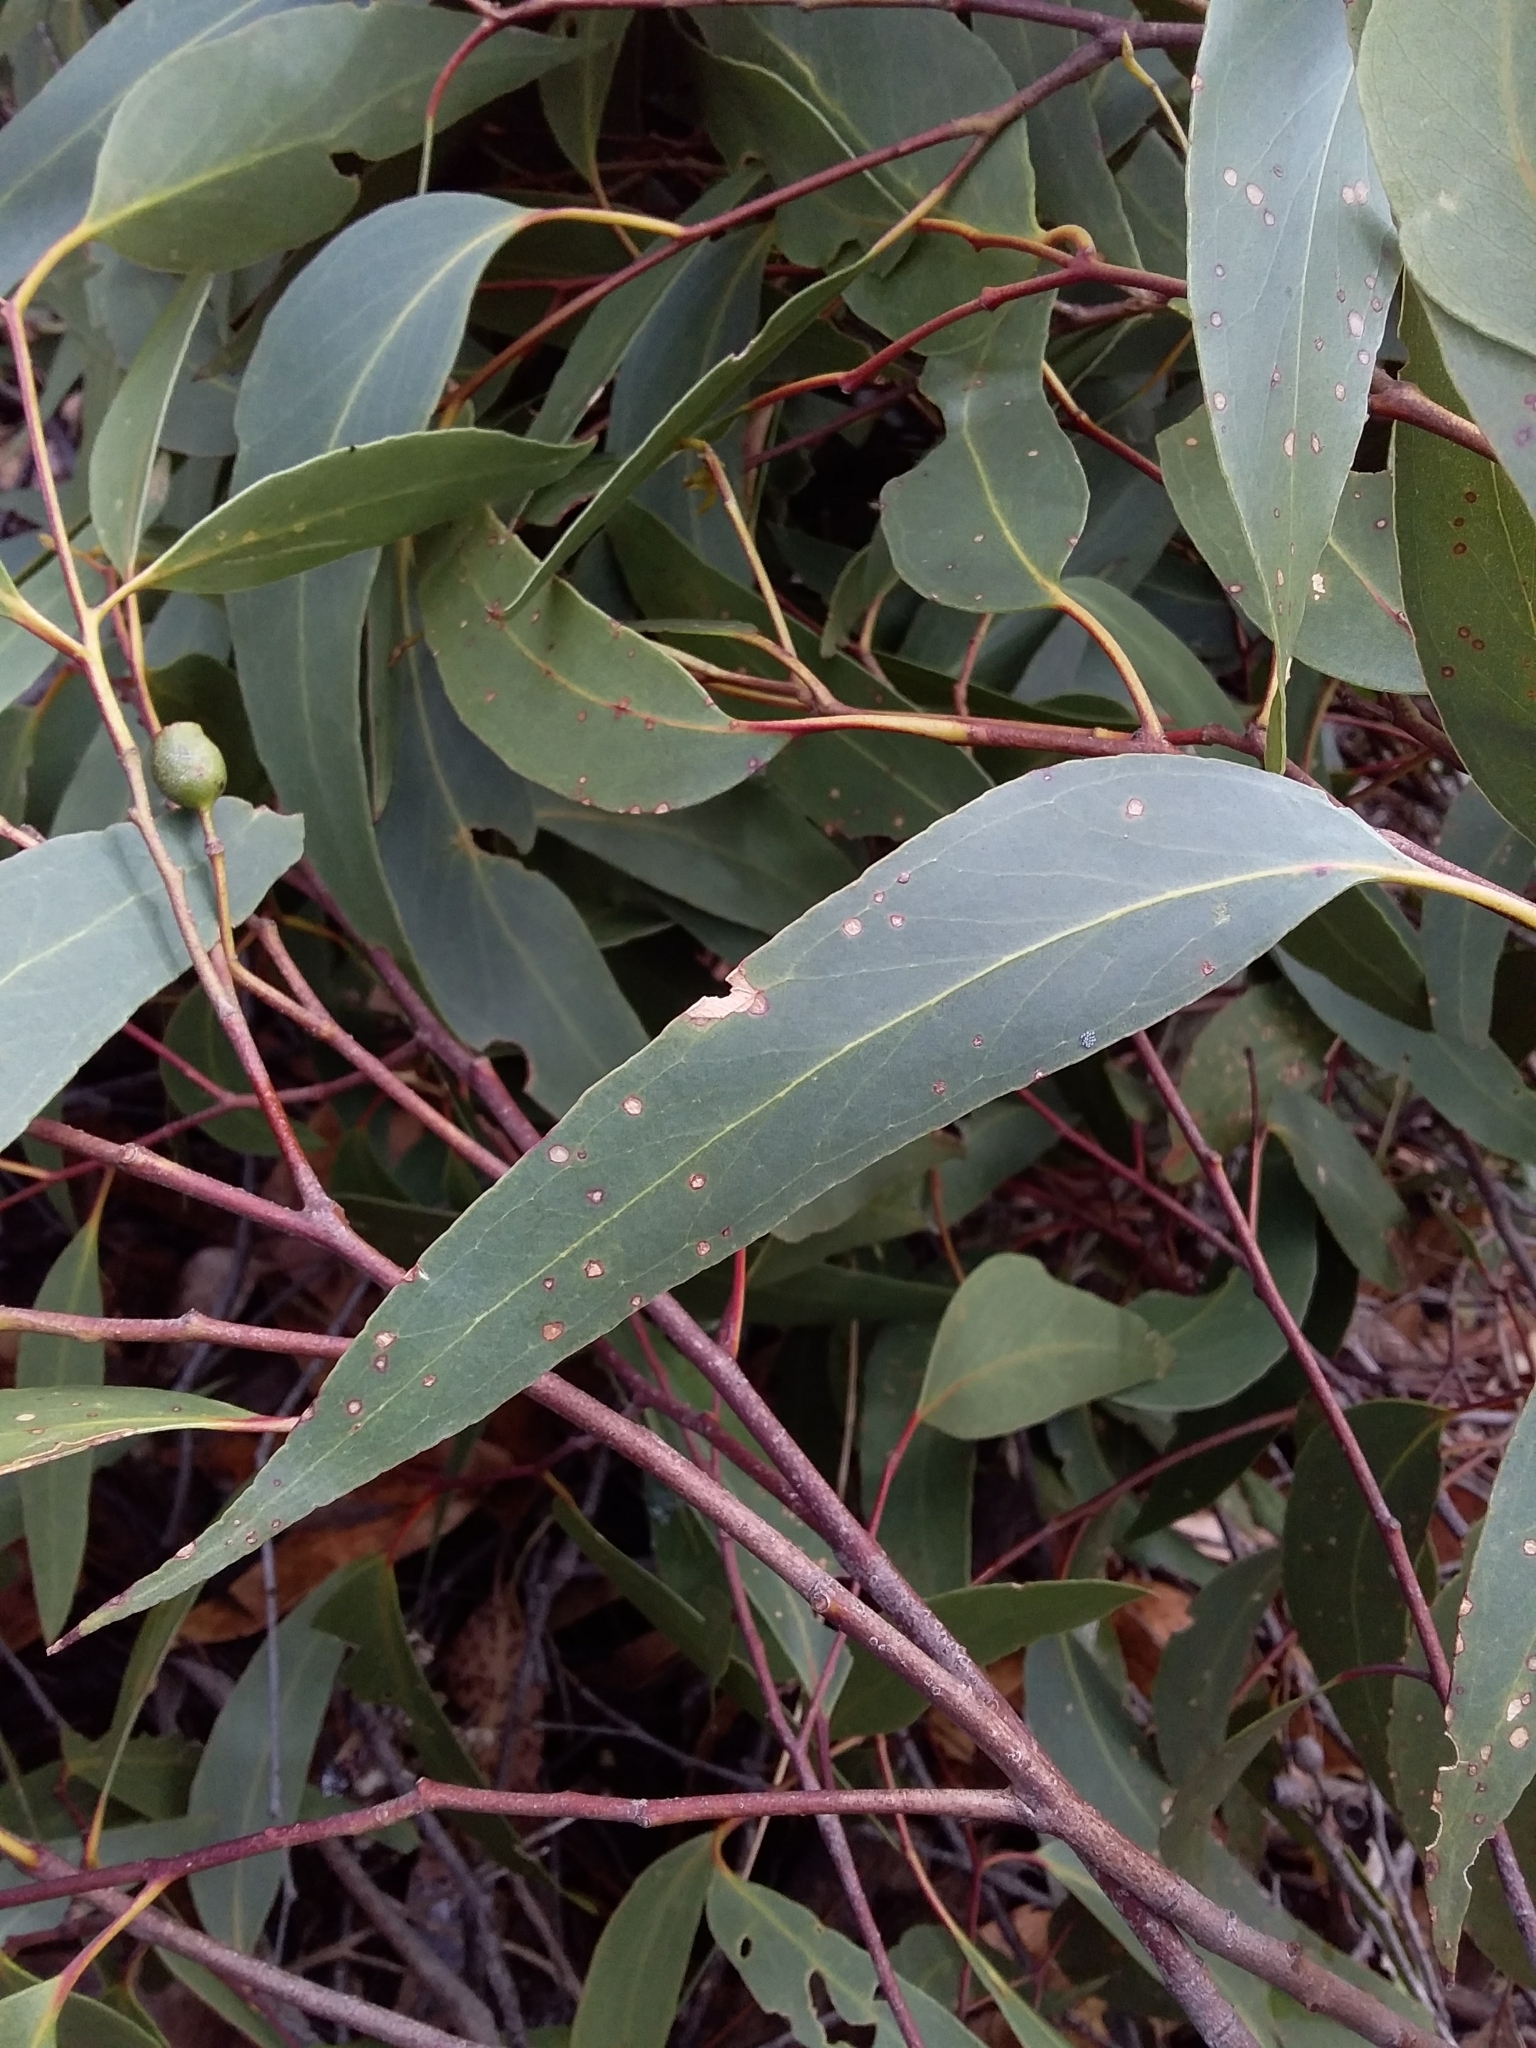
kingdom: Plantae
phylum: Tracheophyta
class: Magnoliopsida
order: Myrtales
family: Myrtaceae
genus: Eucalyptus
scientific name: Eucalyptus obliqua
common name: Messmate stringybark
